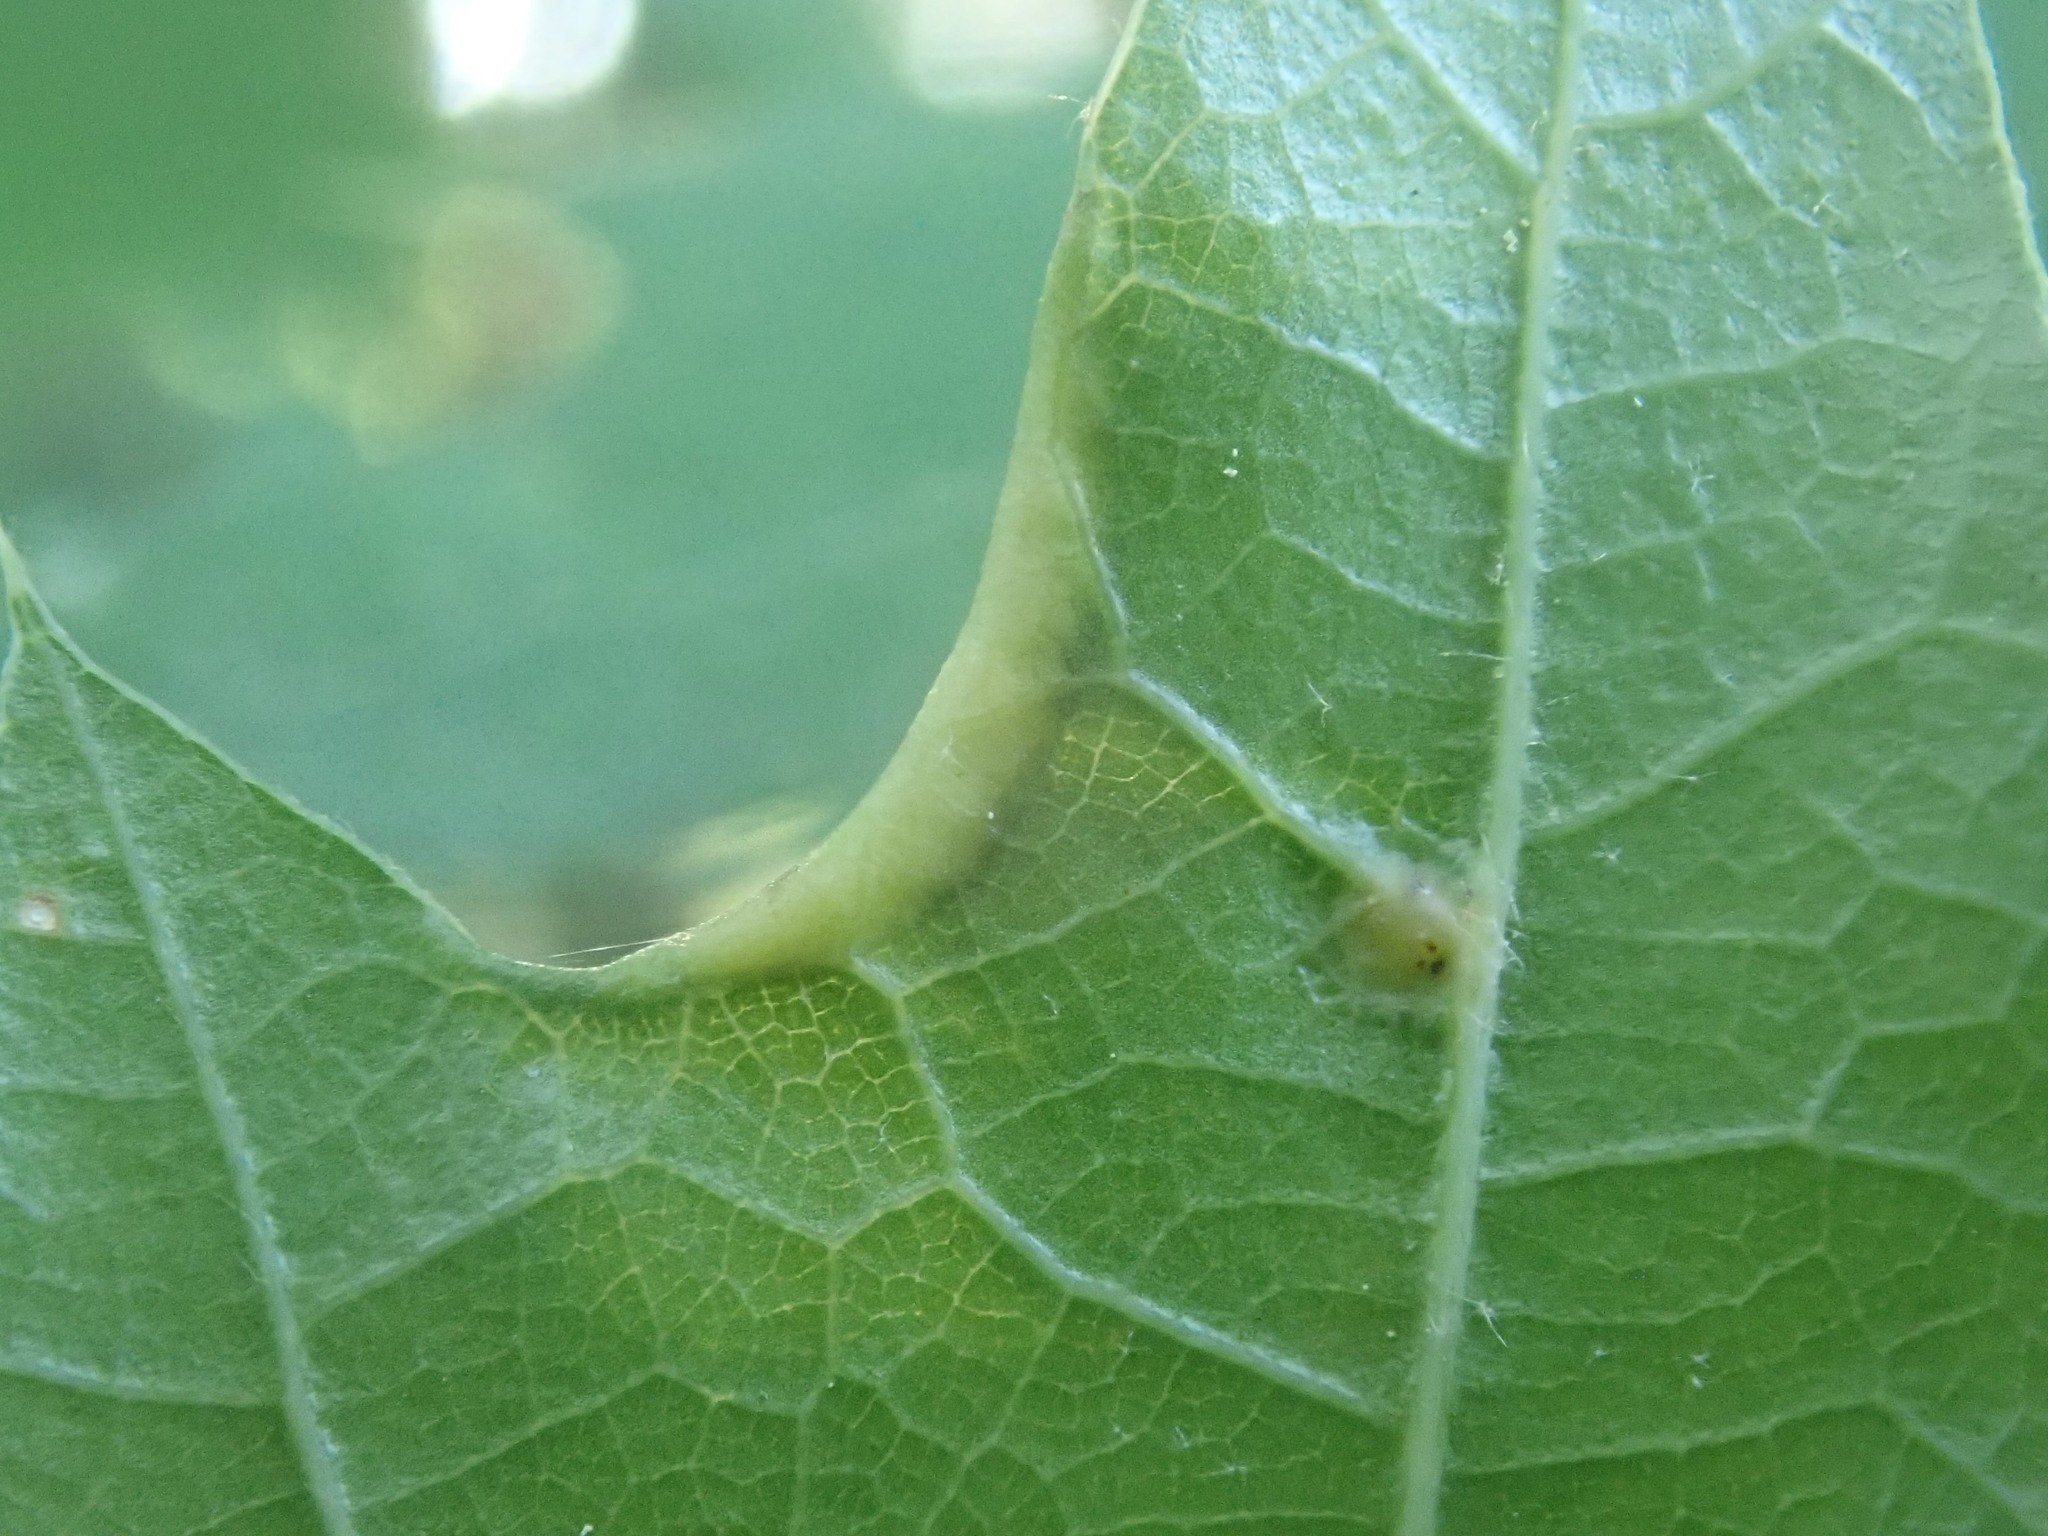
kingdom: Animalia
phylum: Arthropoda
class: Insecta
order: Diptera
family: Cecidomyiidae
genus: Macrodiplosis
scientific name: Macrodiplosis erubescens
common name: Marginal leaf fold gall midge
